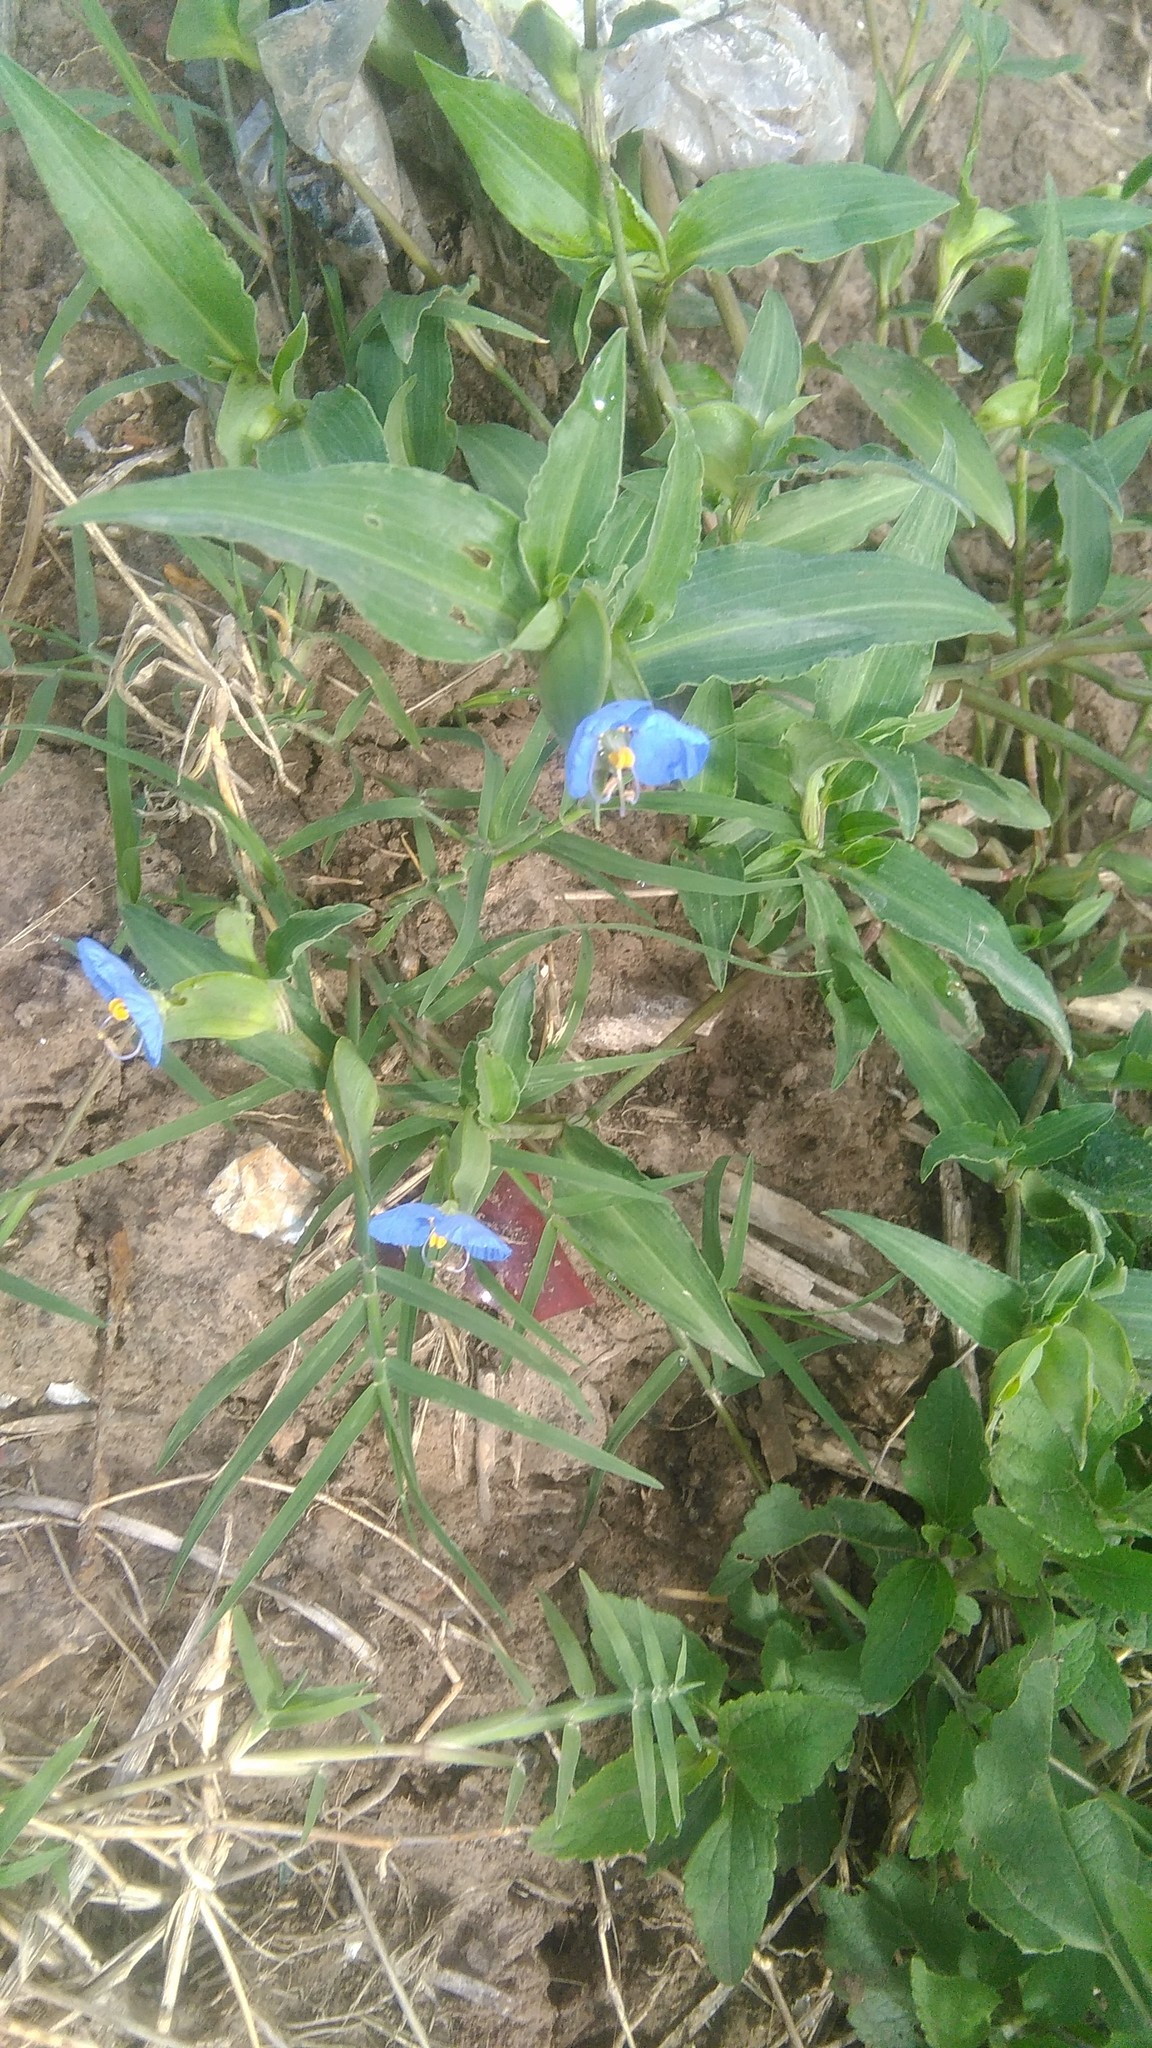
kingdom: Plantae
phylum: Tracheophyta
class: Liliopsida
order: Commelinales
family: Commelinaceae
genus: Commelina
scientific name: Commelina erecta
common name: Blousel blommetjie
